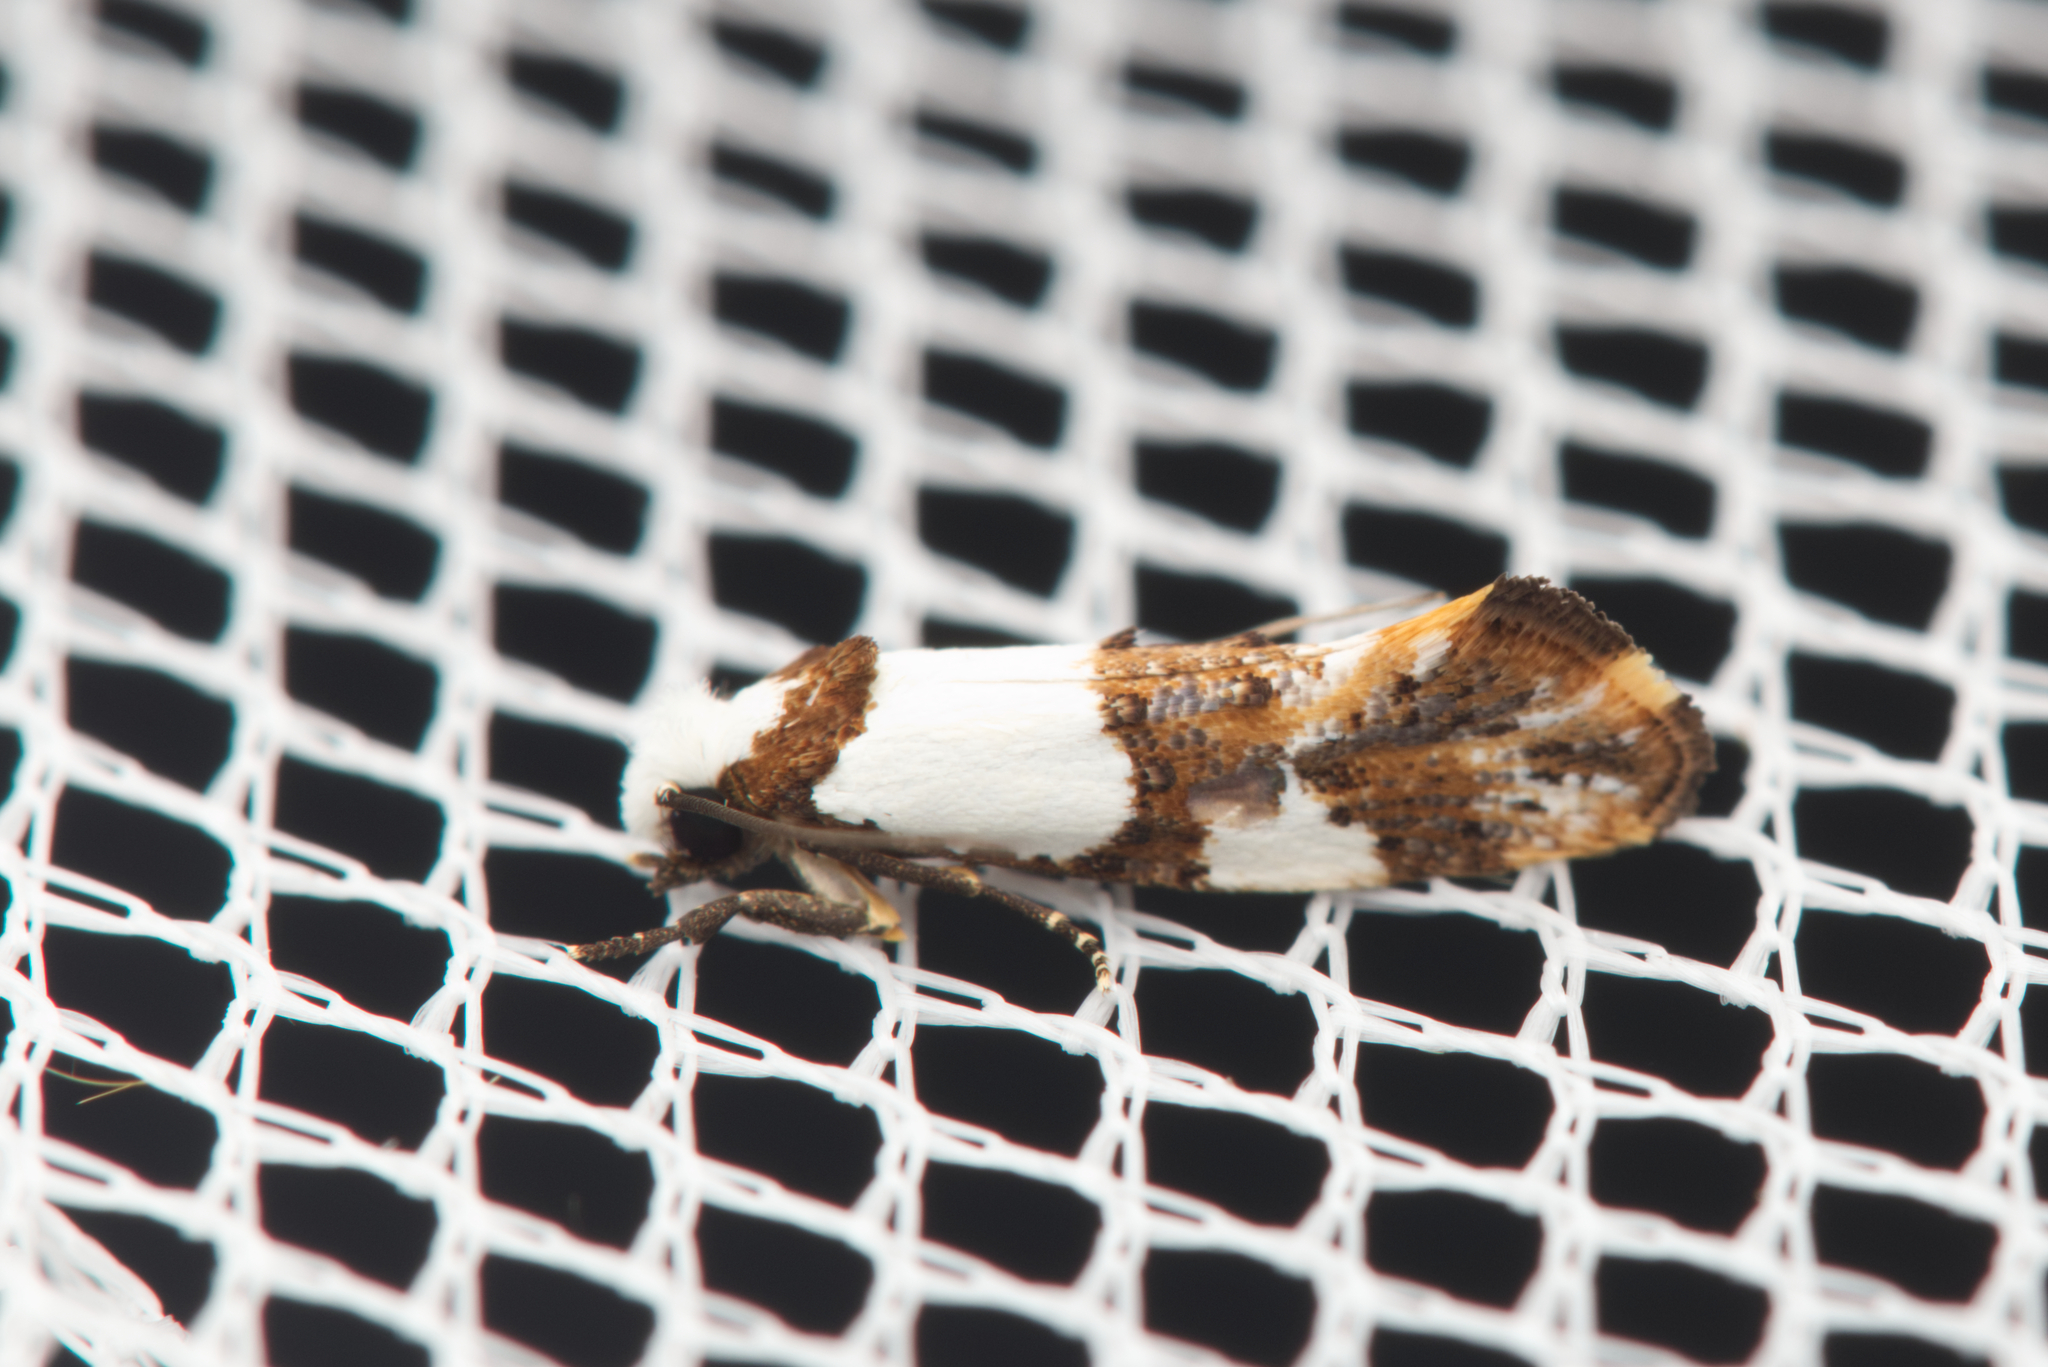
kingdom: Animalia
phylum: Arthropoda
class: Insecta
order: Lepidoptera
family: Tineidae
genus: Monopis
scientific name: Monopis meliorella
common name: Blotched monopis moth
